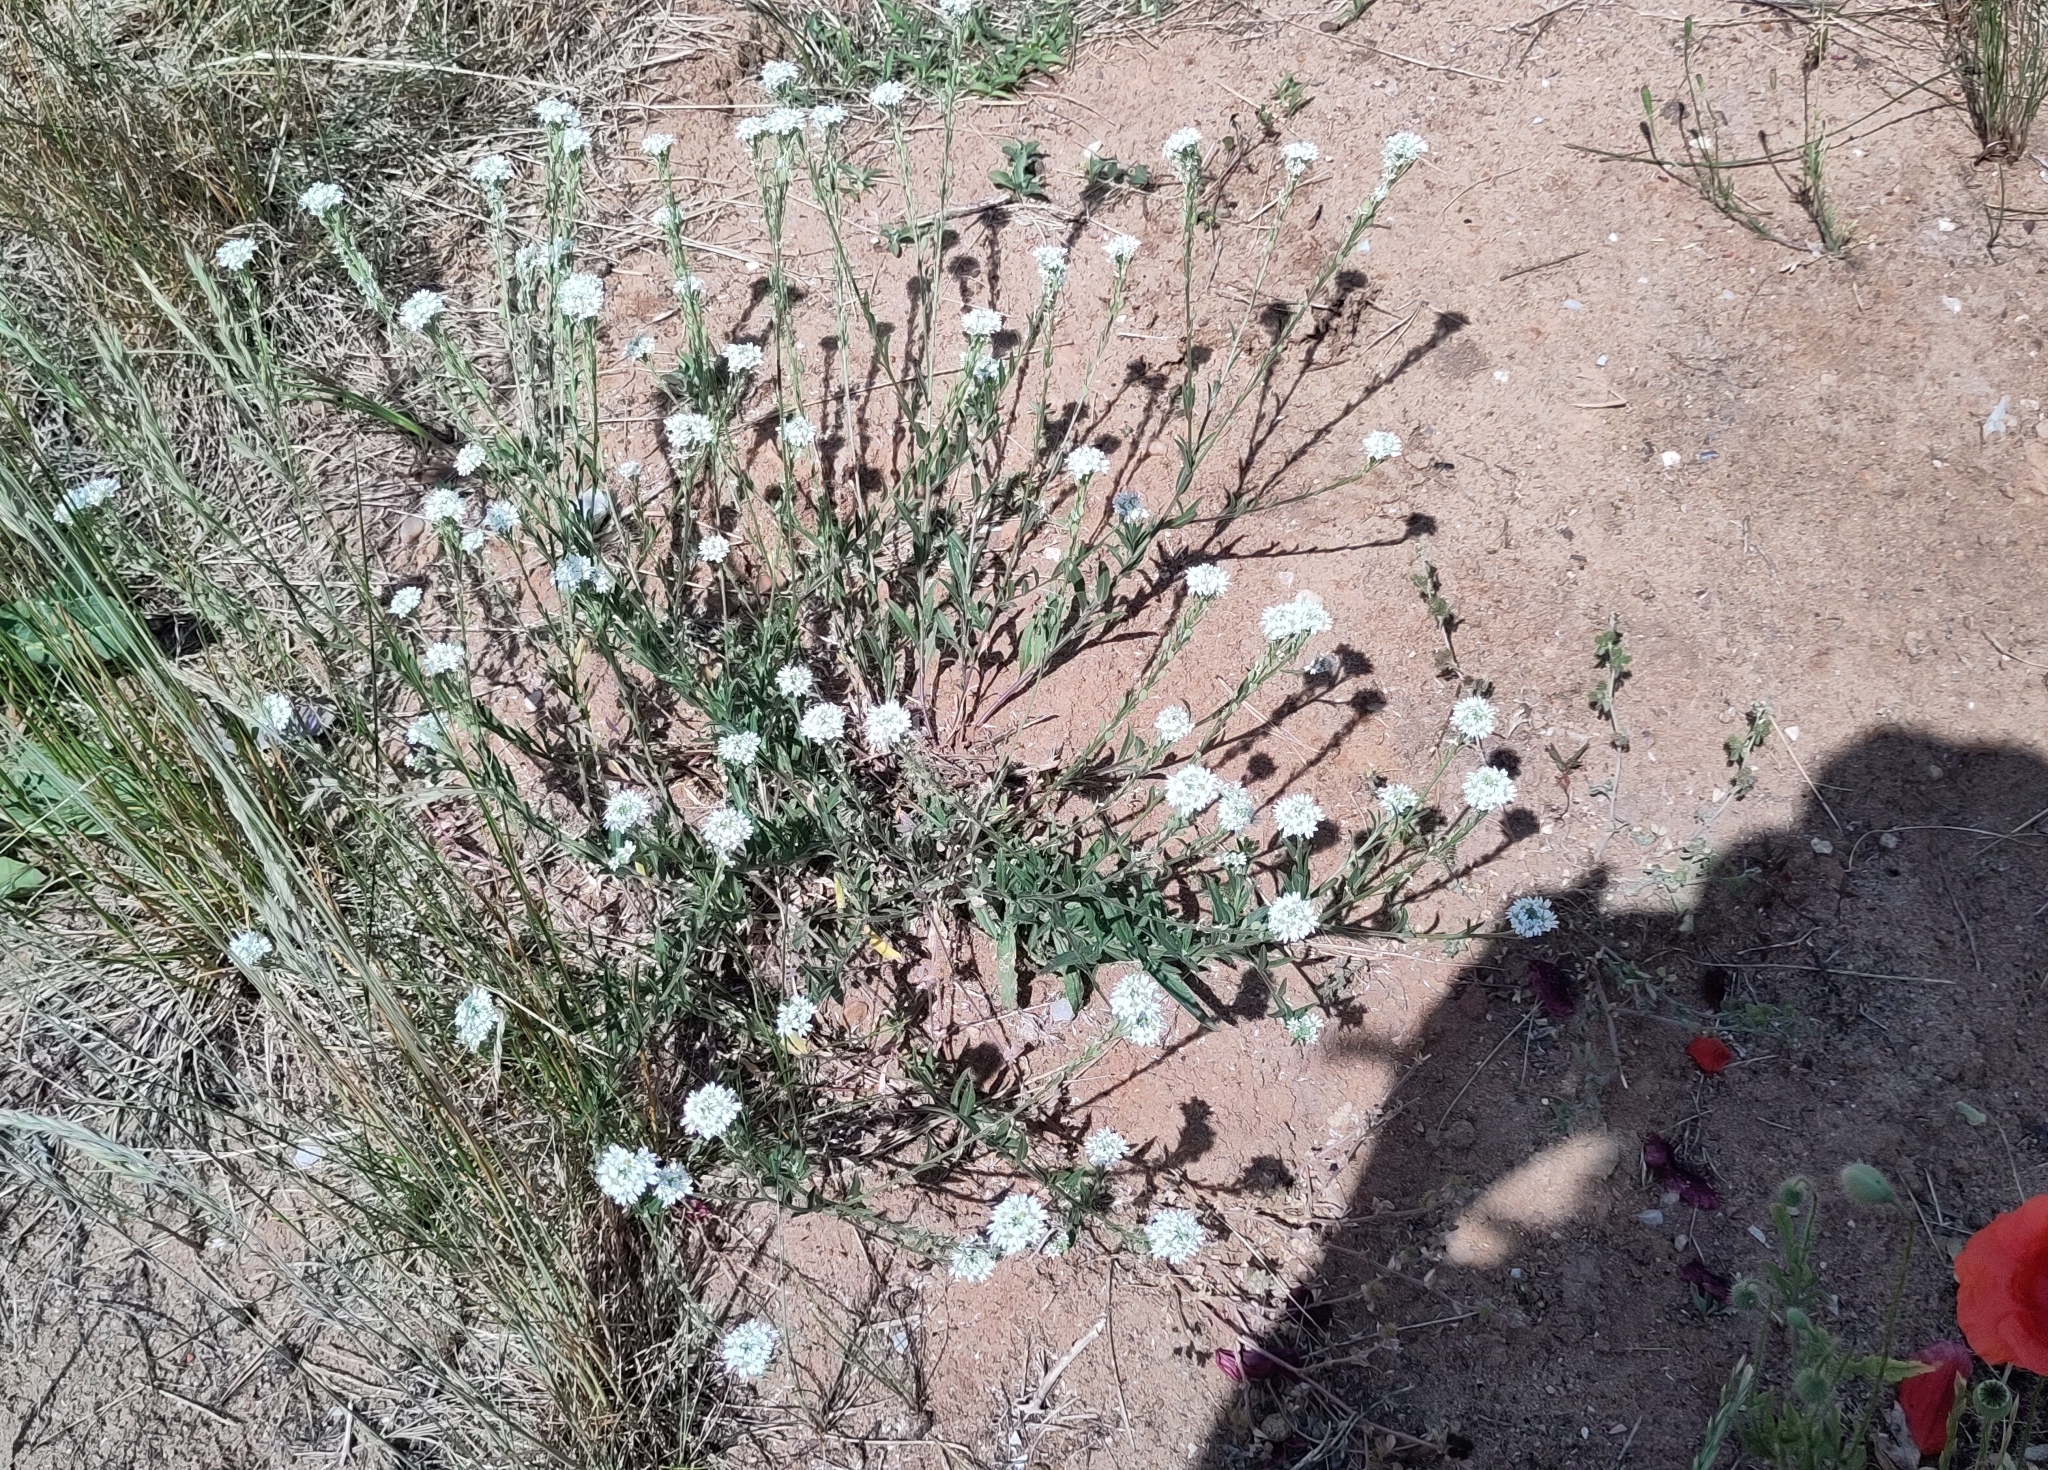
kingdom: Plantae
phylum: Tracheophyta
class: Magnoliopsida
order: Brassicales
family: Brassicaceae
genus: Berteroa
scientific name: Berteroa incana
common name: Hoary alison
